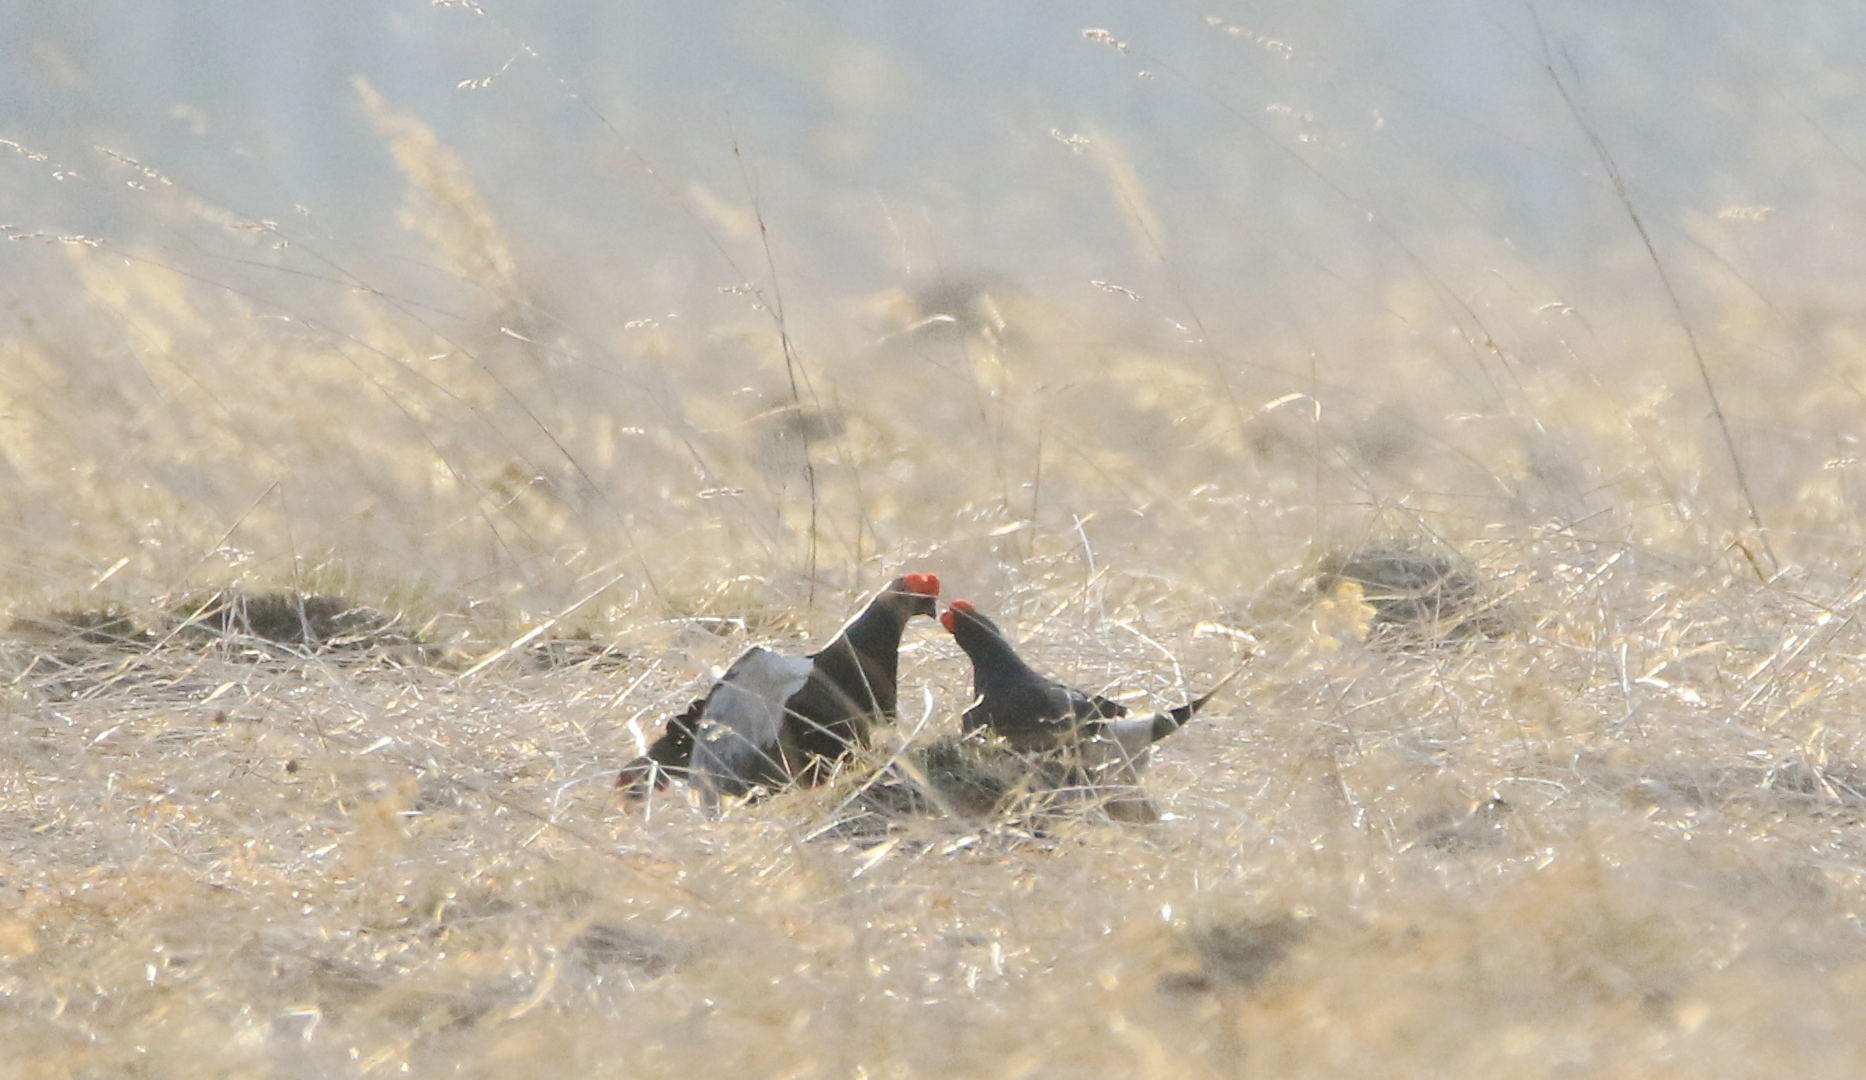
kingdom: Animalia
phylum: Chordata
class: Aves
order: Galliformes
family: Phasianidae
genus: Lyrurus
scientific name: Lyrurus tetrix
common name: Black grouse
